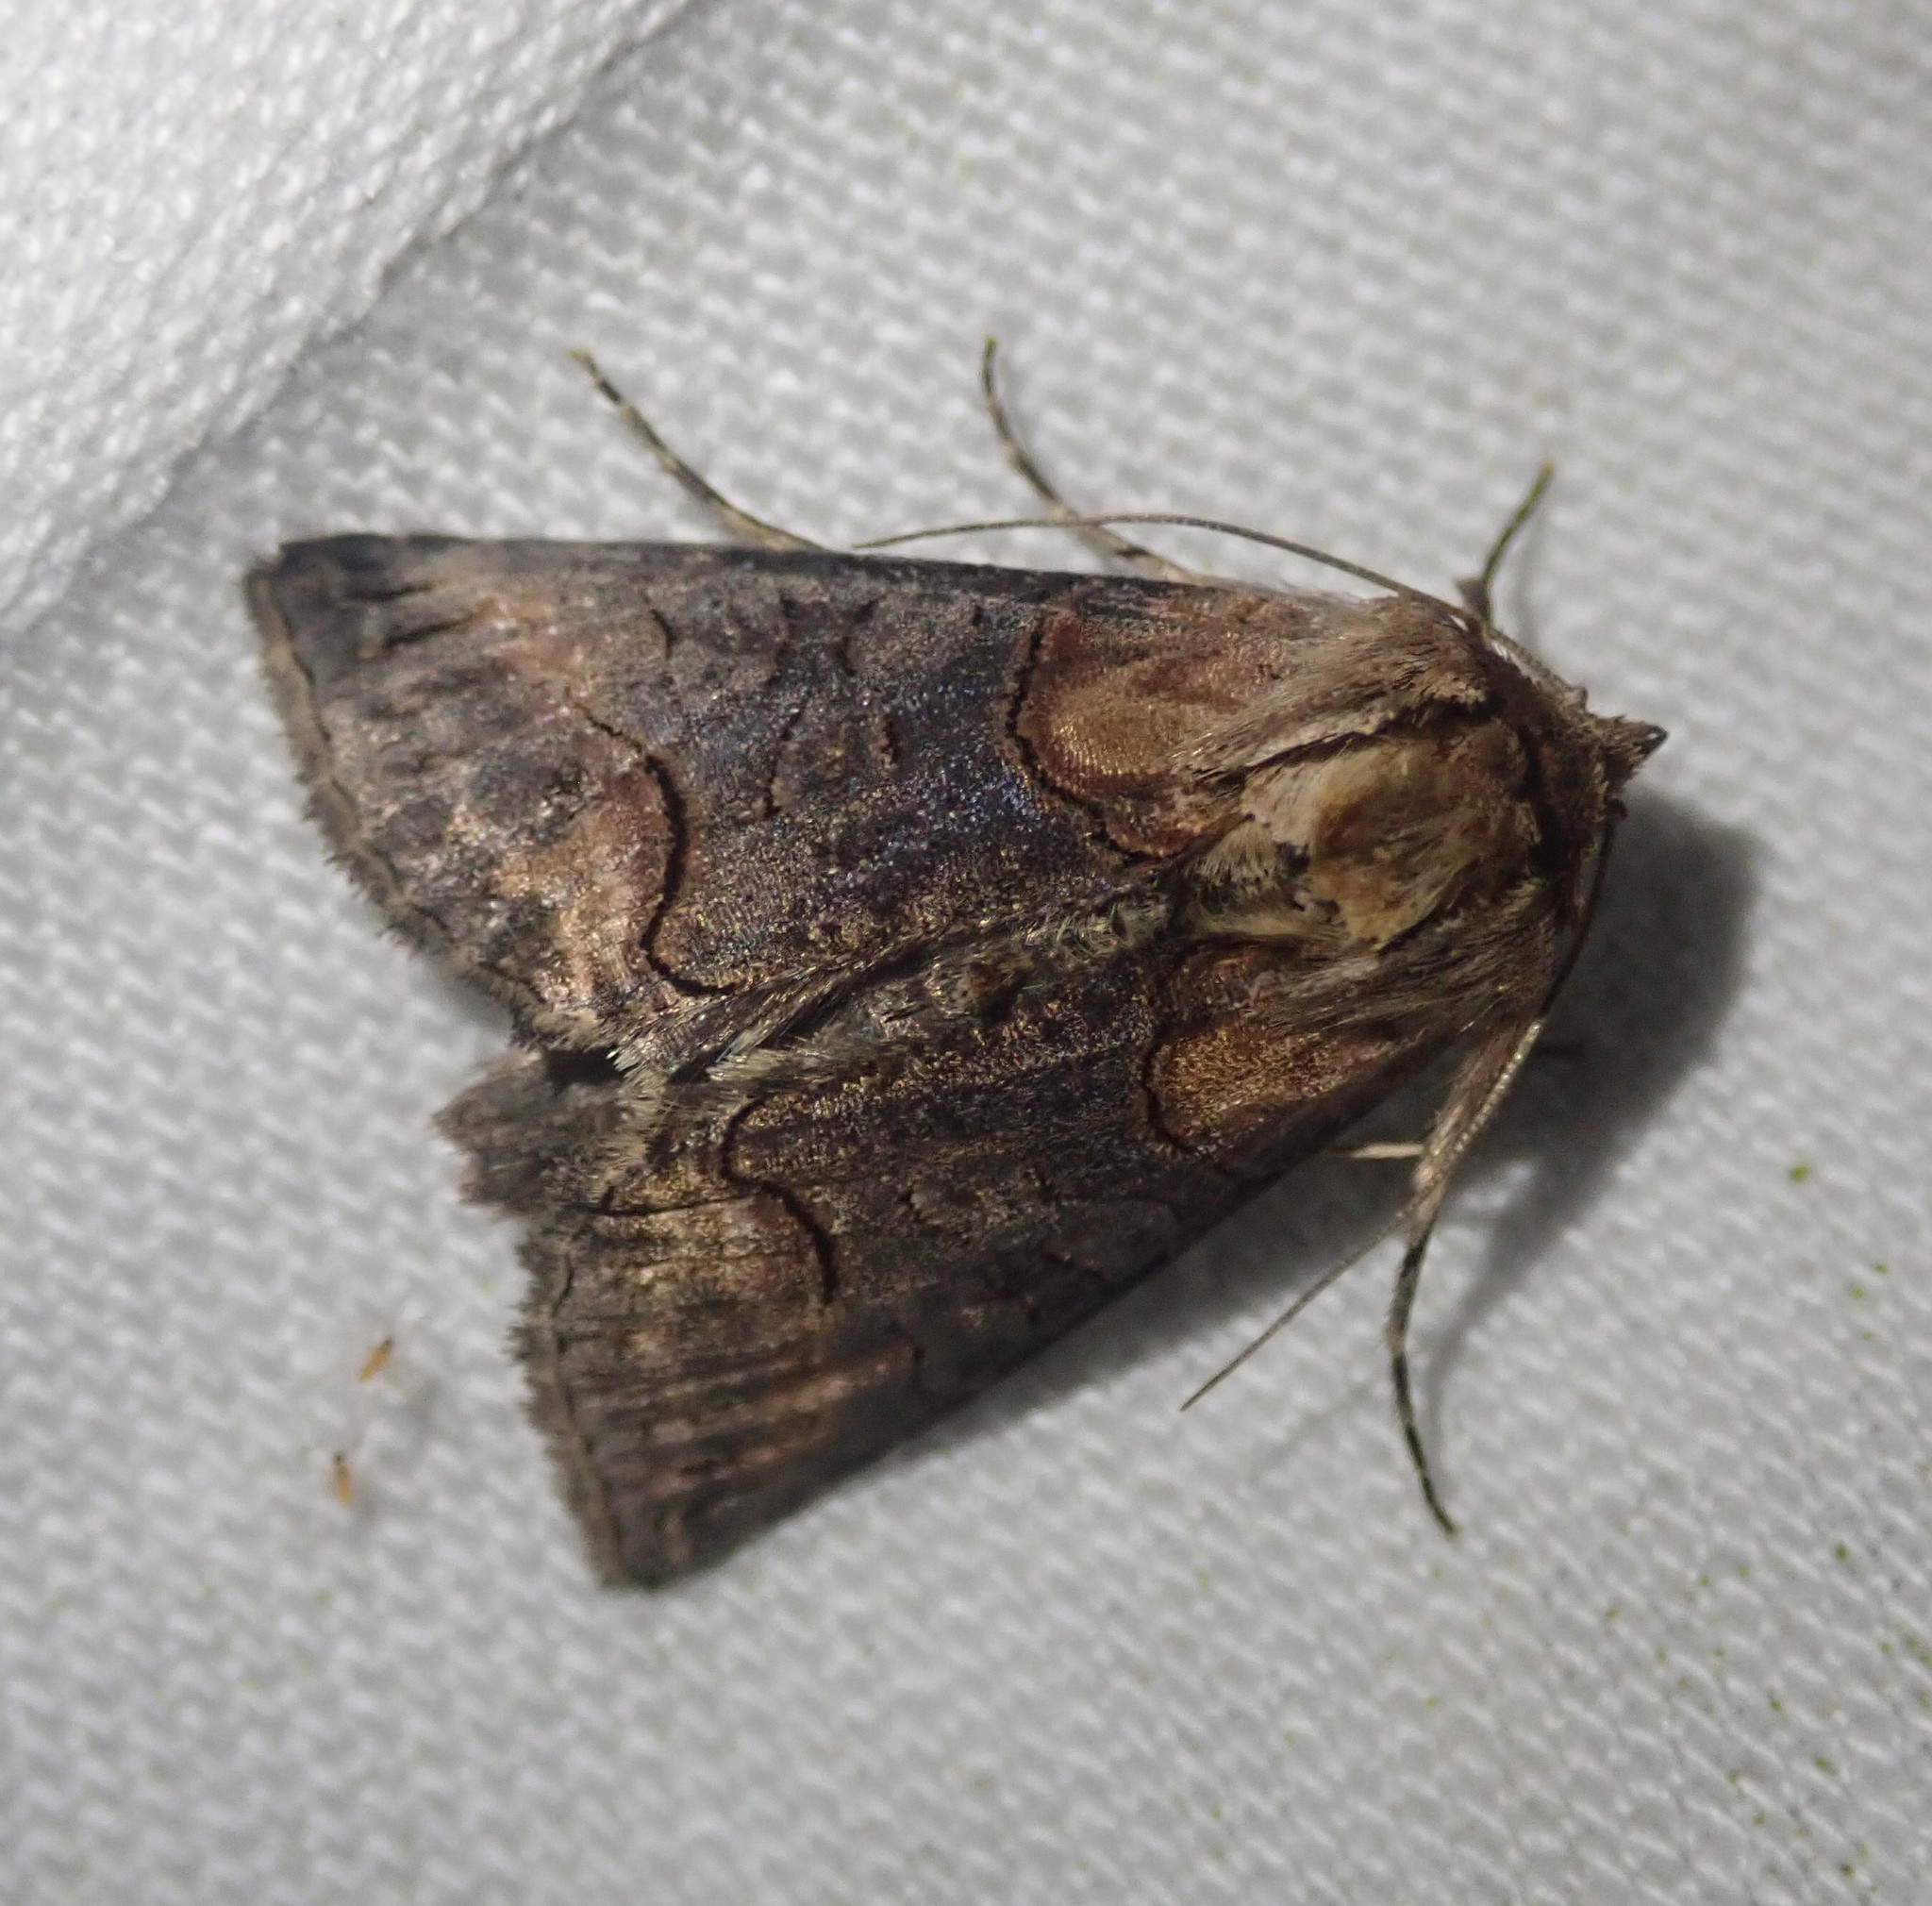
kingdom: Animalia
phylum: Arthropoda
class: Insecta
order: Lepidoptera
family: Noctuidae
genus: Abrostola
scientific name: Abrostola triplasia
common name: Dark spectacle
